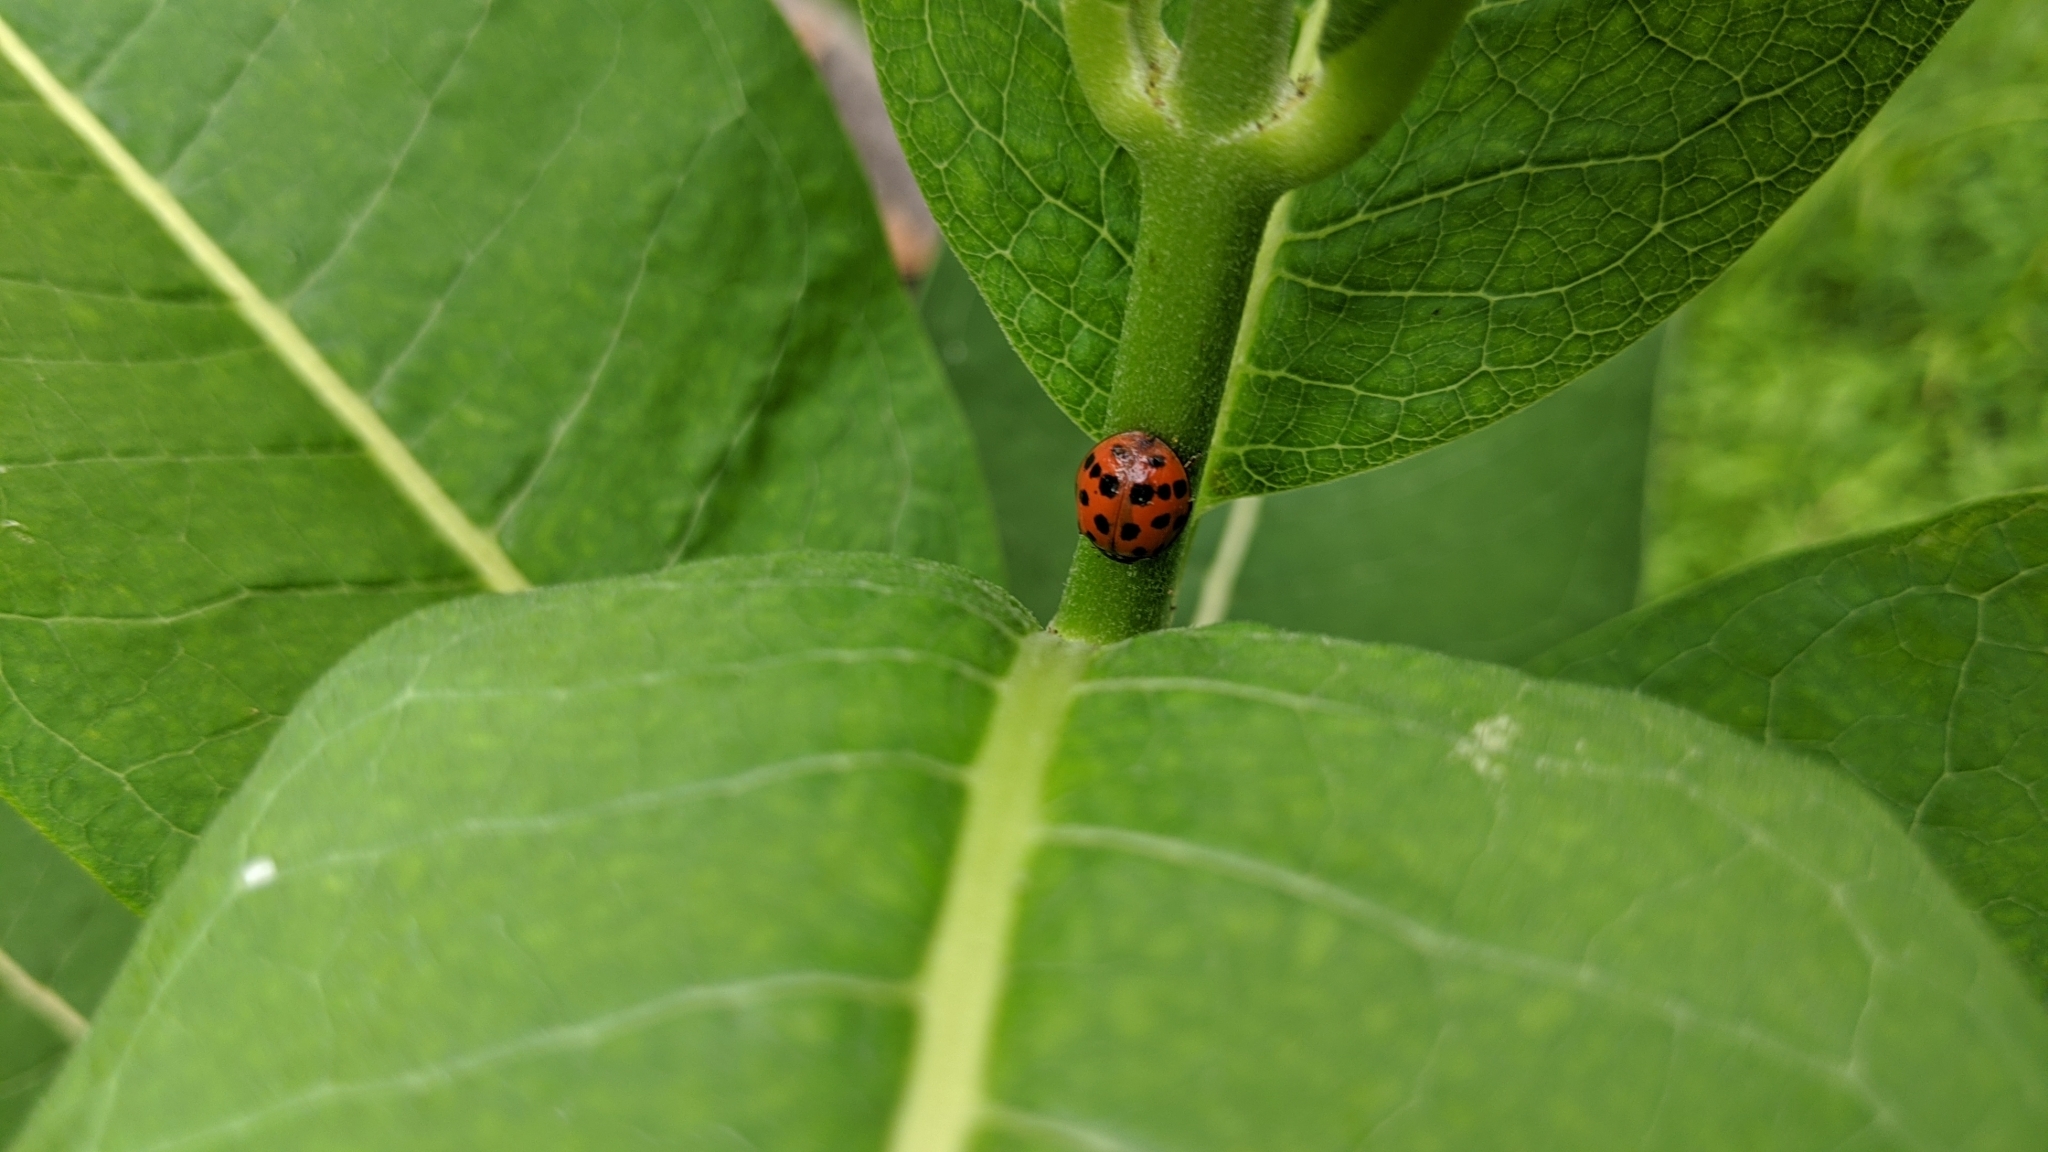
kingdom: Animalia
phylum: Arthropoda
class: Insecta
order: Coleoptera
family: Coccinellidae
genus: Harmonia
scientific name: Harmonia axyridis
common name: Harlequin ladybird
